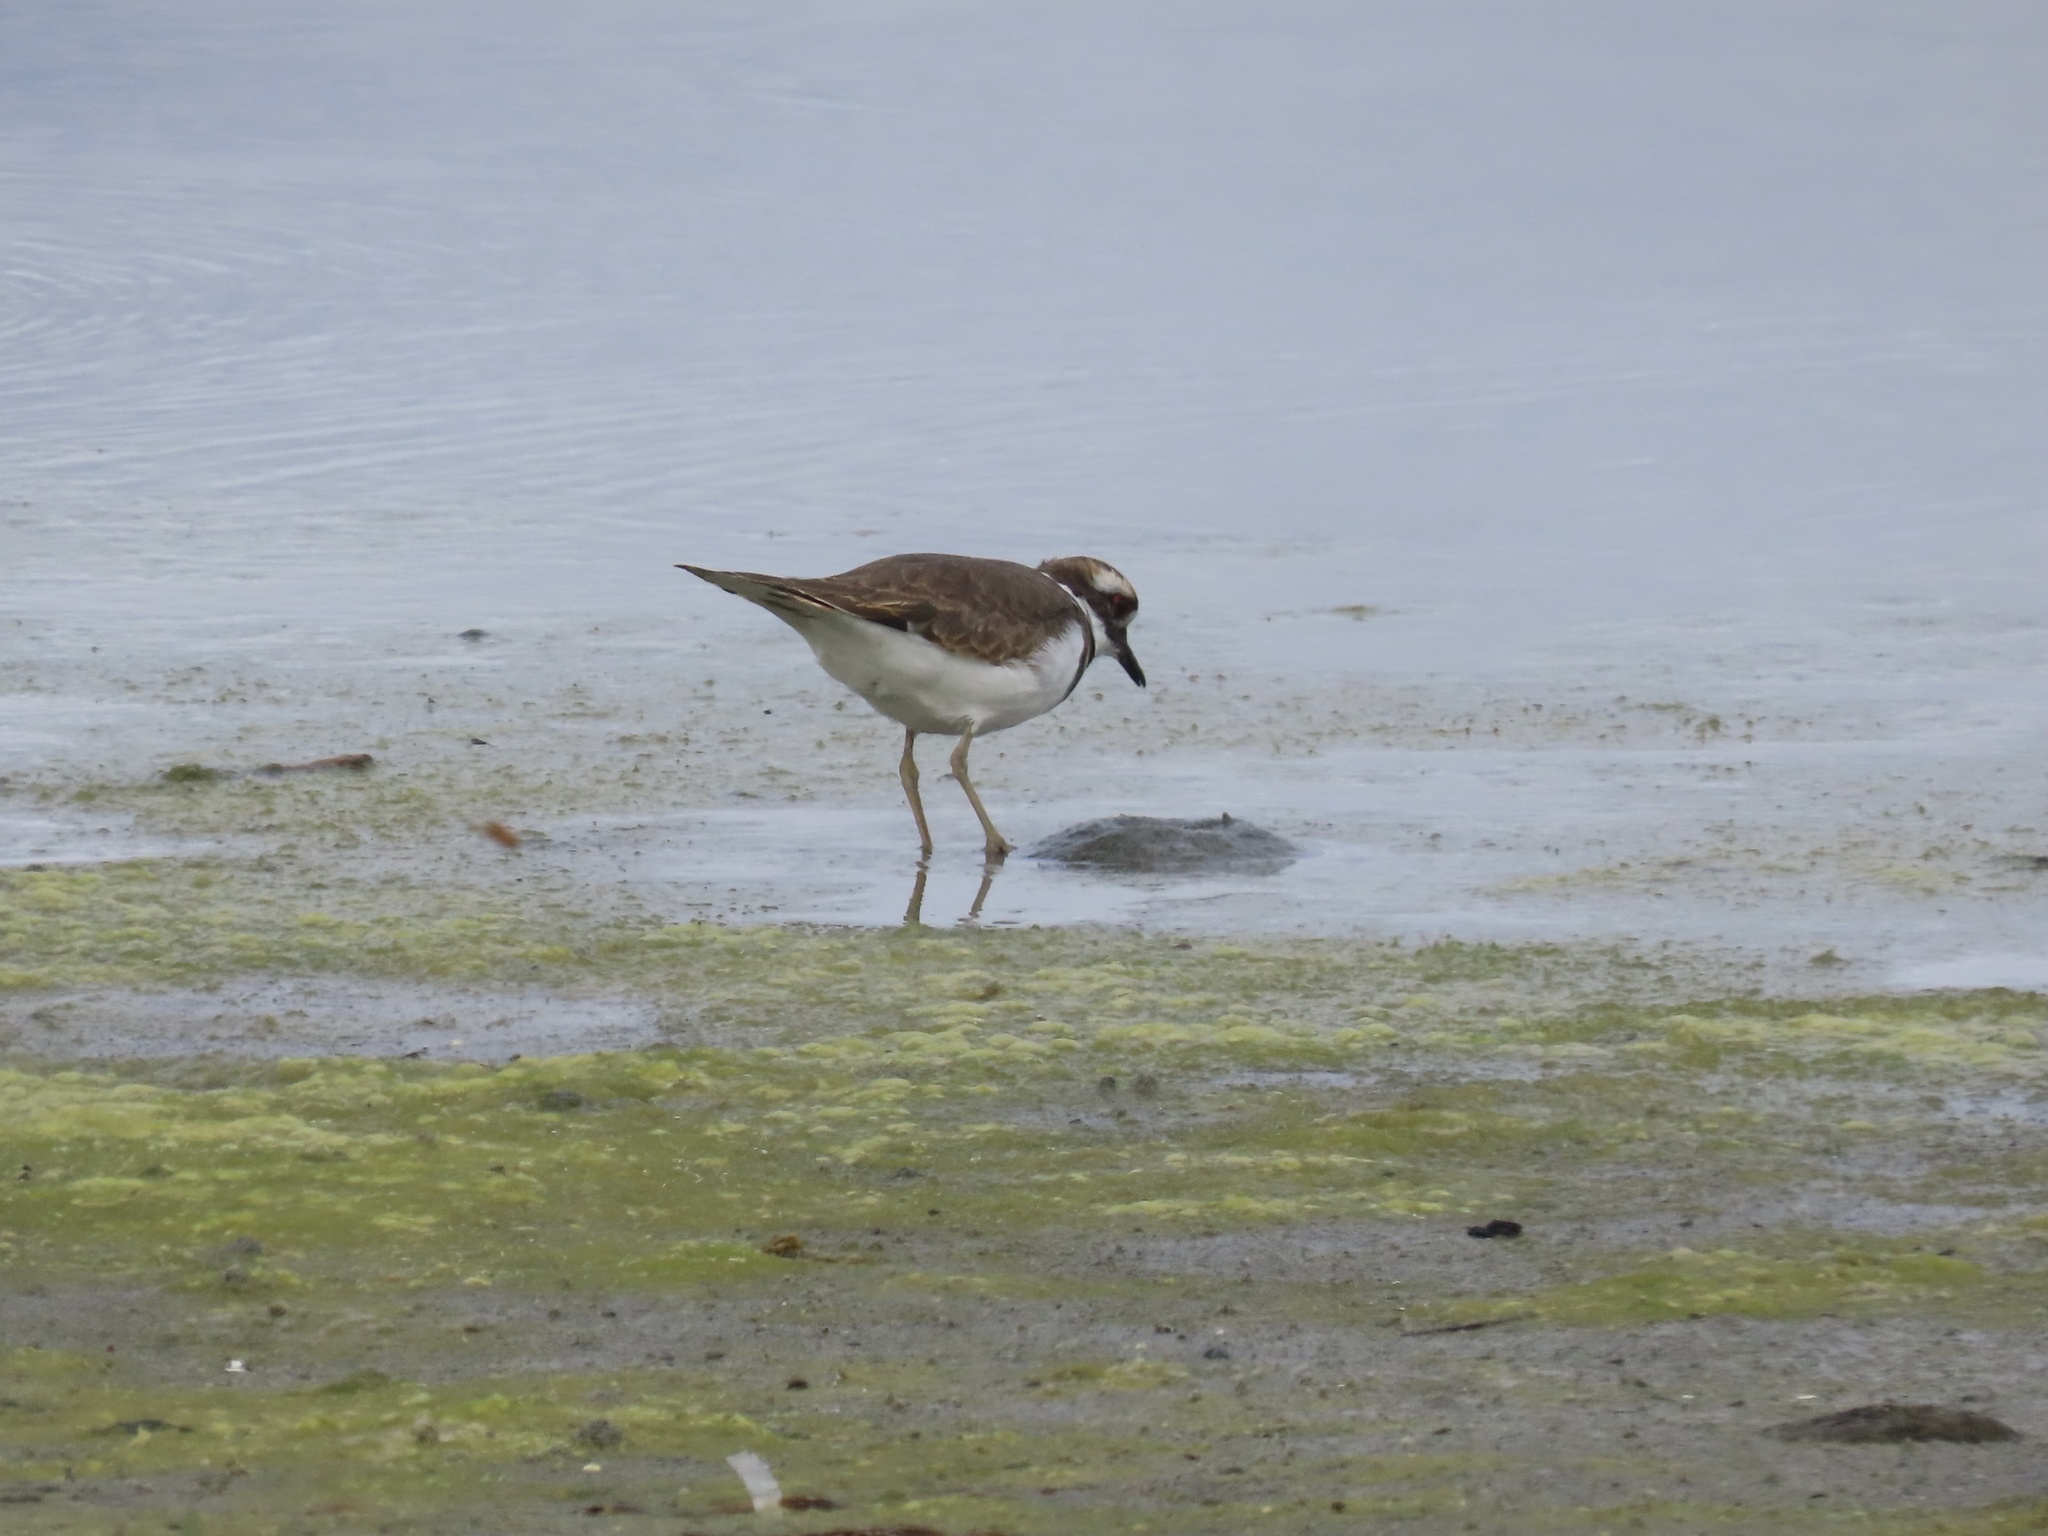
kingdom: Animalia
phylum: Chordata
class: Aves
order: Charadriiformes
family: Charadriidae
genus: Charadrius
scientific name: Charadrius vociferus
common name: Killdeer
